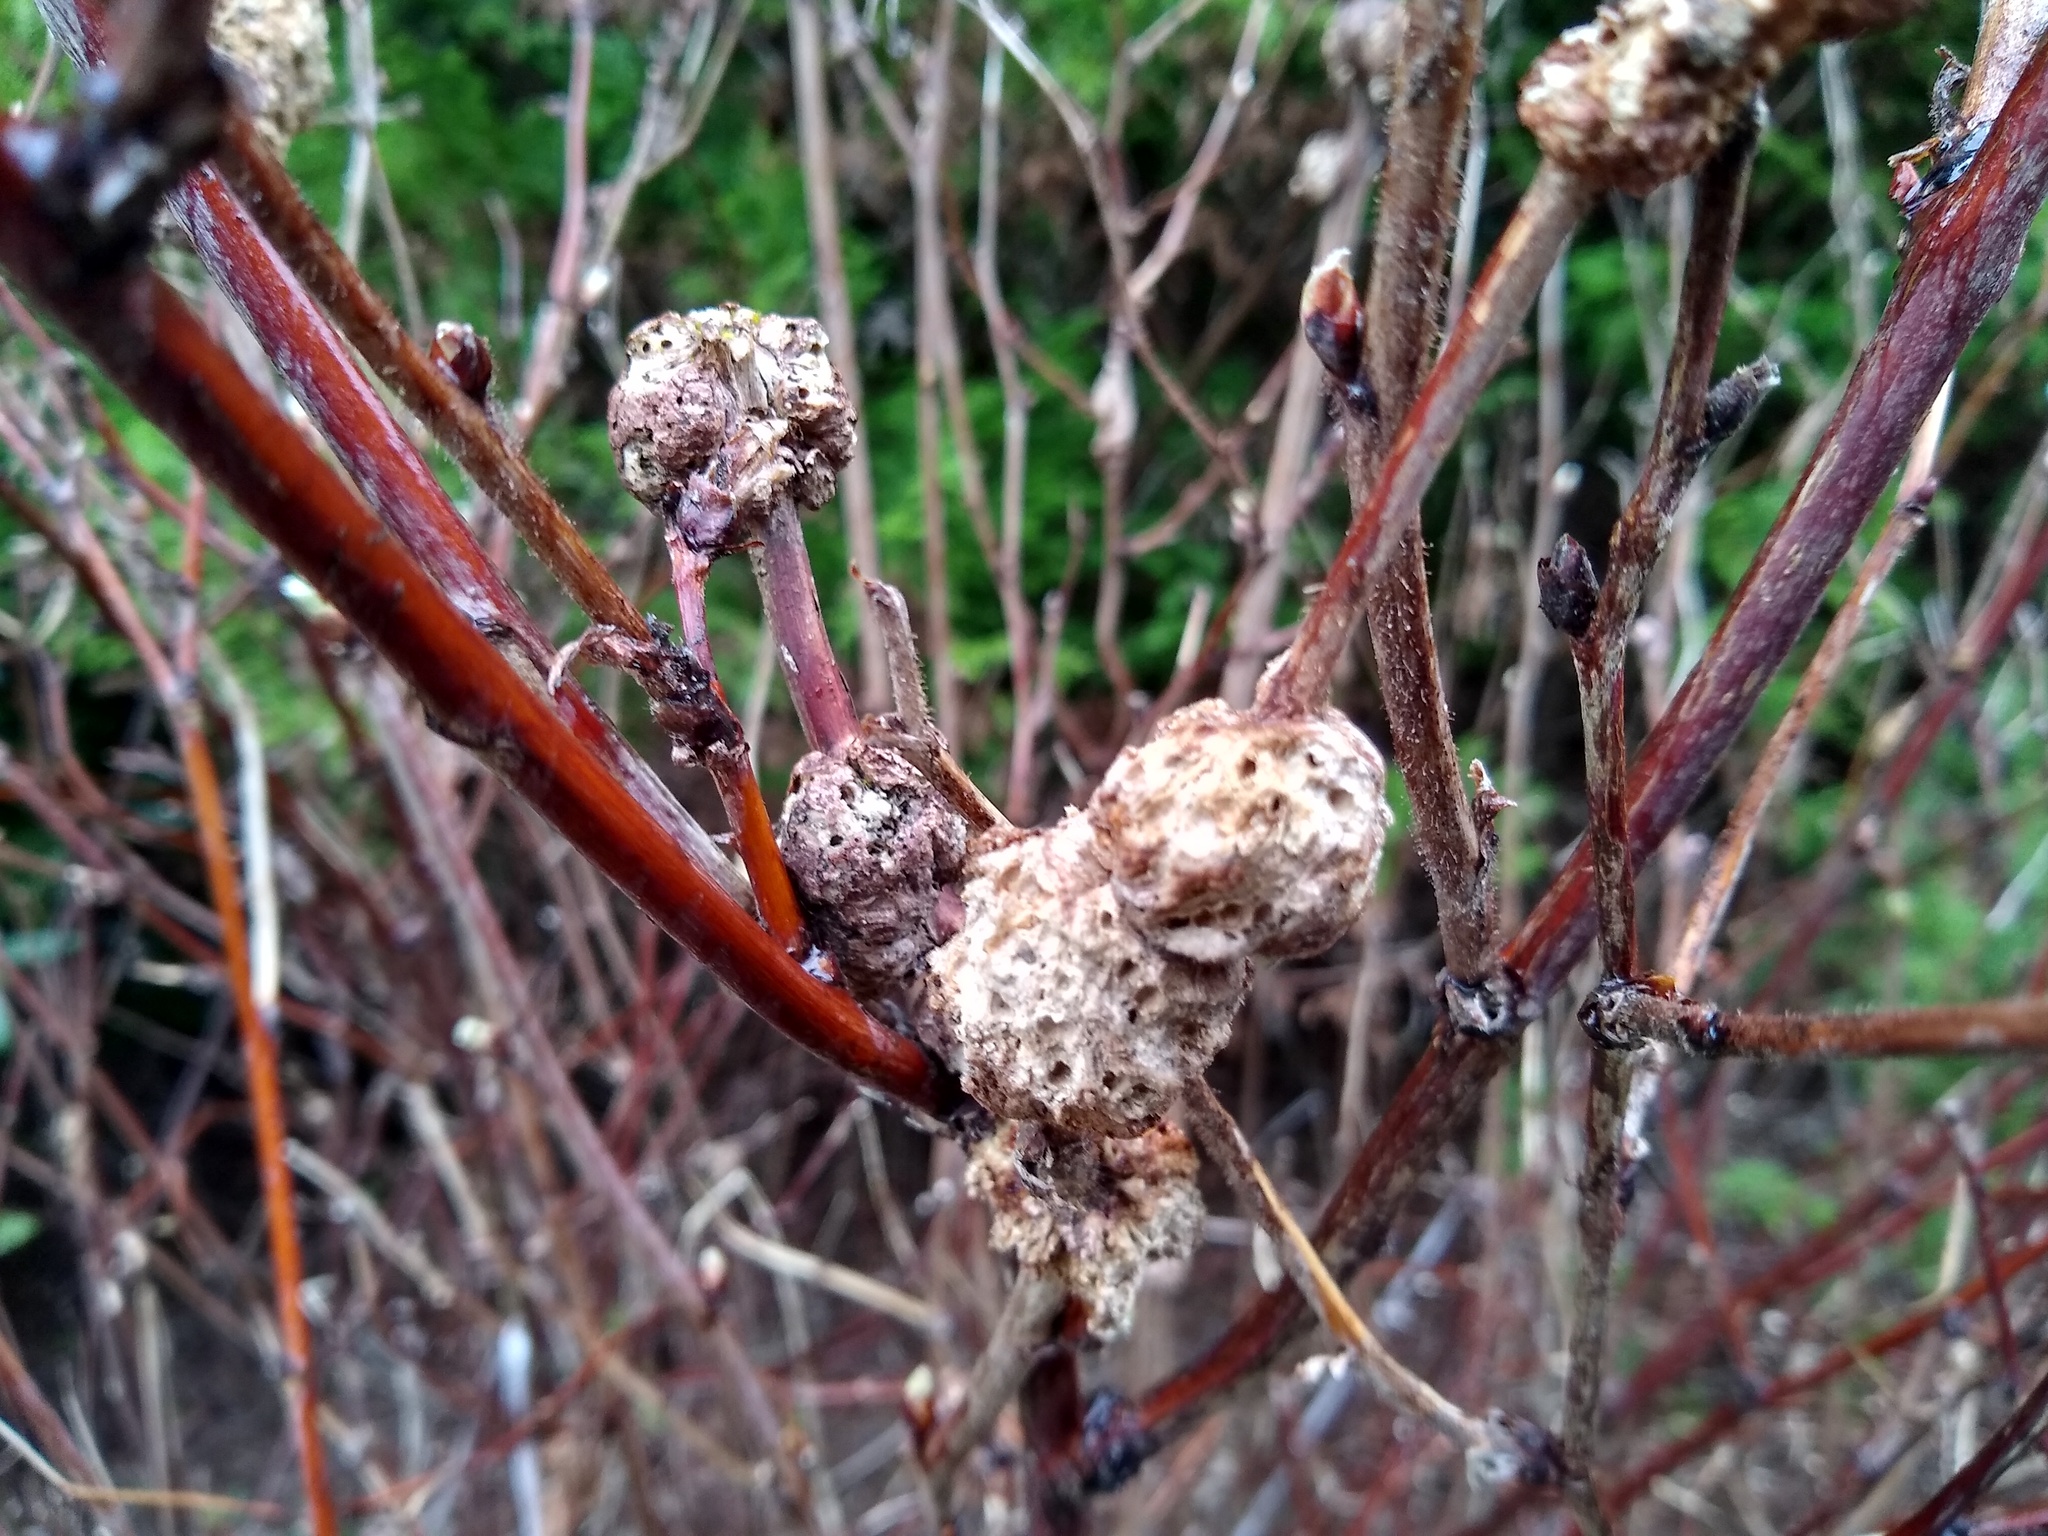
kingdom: Animalia
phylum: Arthropoda
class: Insecta
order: Hymenoptera
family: Cynipidae
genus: Diastrophus
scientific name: Diastrophus
